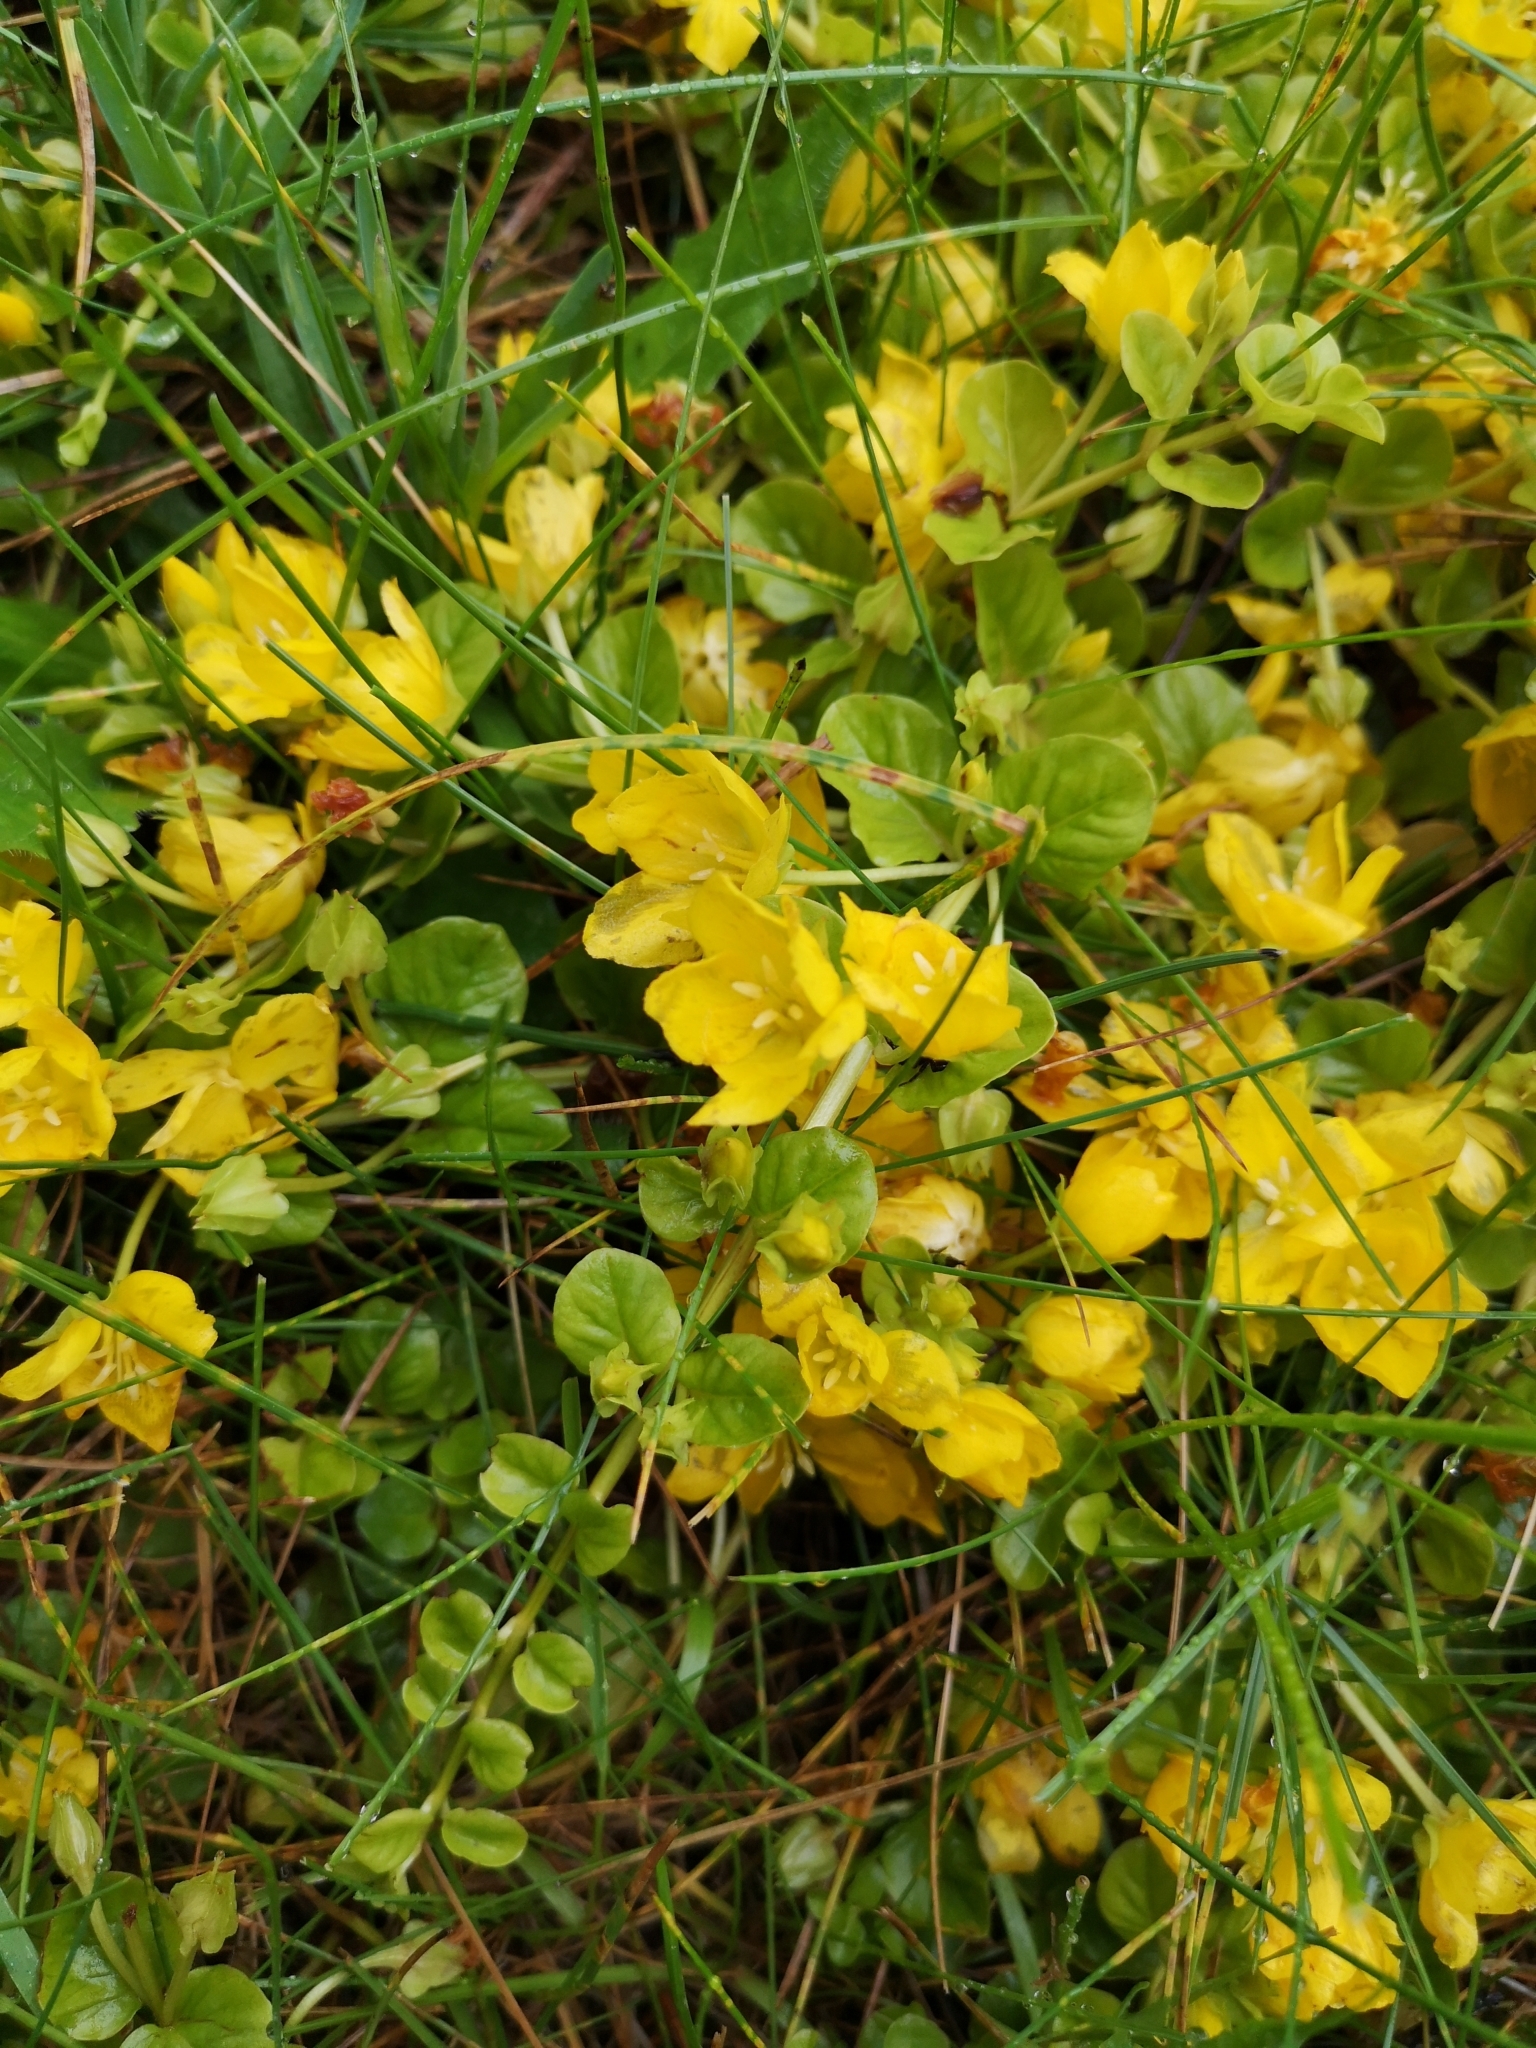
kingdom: Plantae
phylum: Tracheophyta
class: Magnoliopsida
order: Ericales
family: Primulaceae
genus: Lysimachia
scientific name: Lysimachia nummularia
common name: Moneywort
